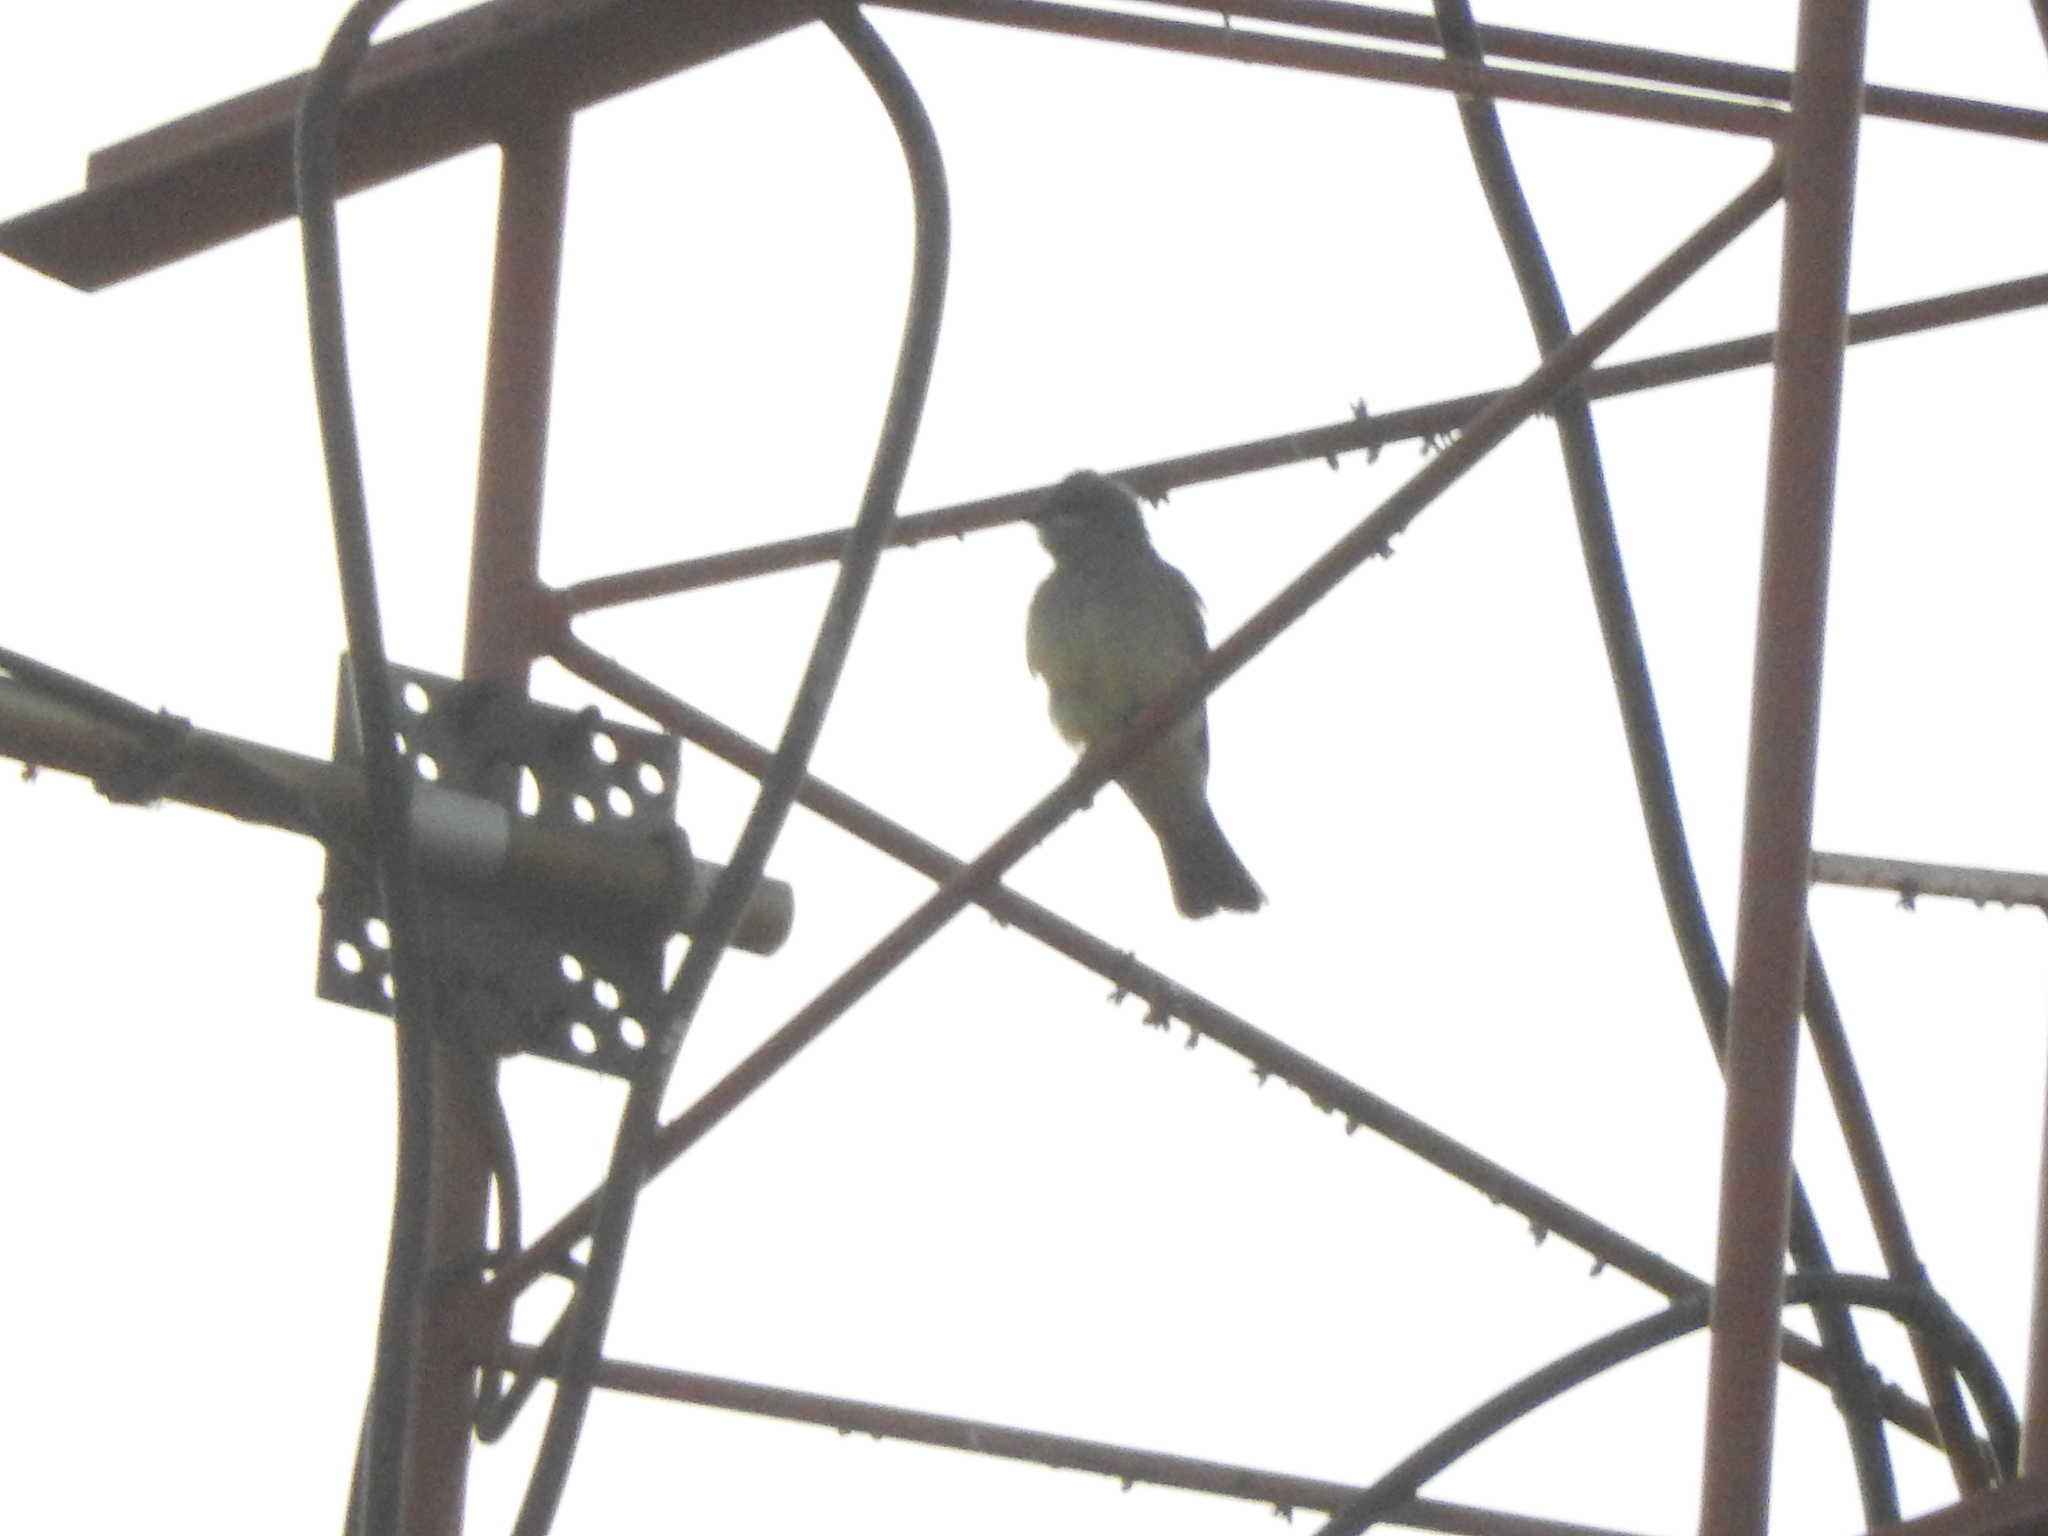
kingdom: Animalia
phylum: Chordata
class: Aves
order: Passeriformes
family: Tyrannidae
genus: Tyrannus
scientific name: Tyrannus vociferans
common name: Cassin's kingbird
